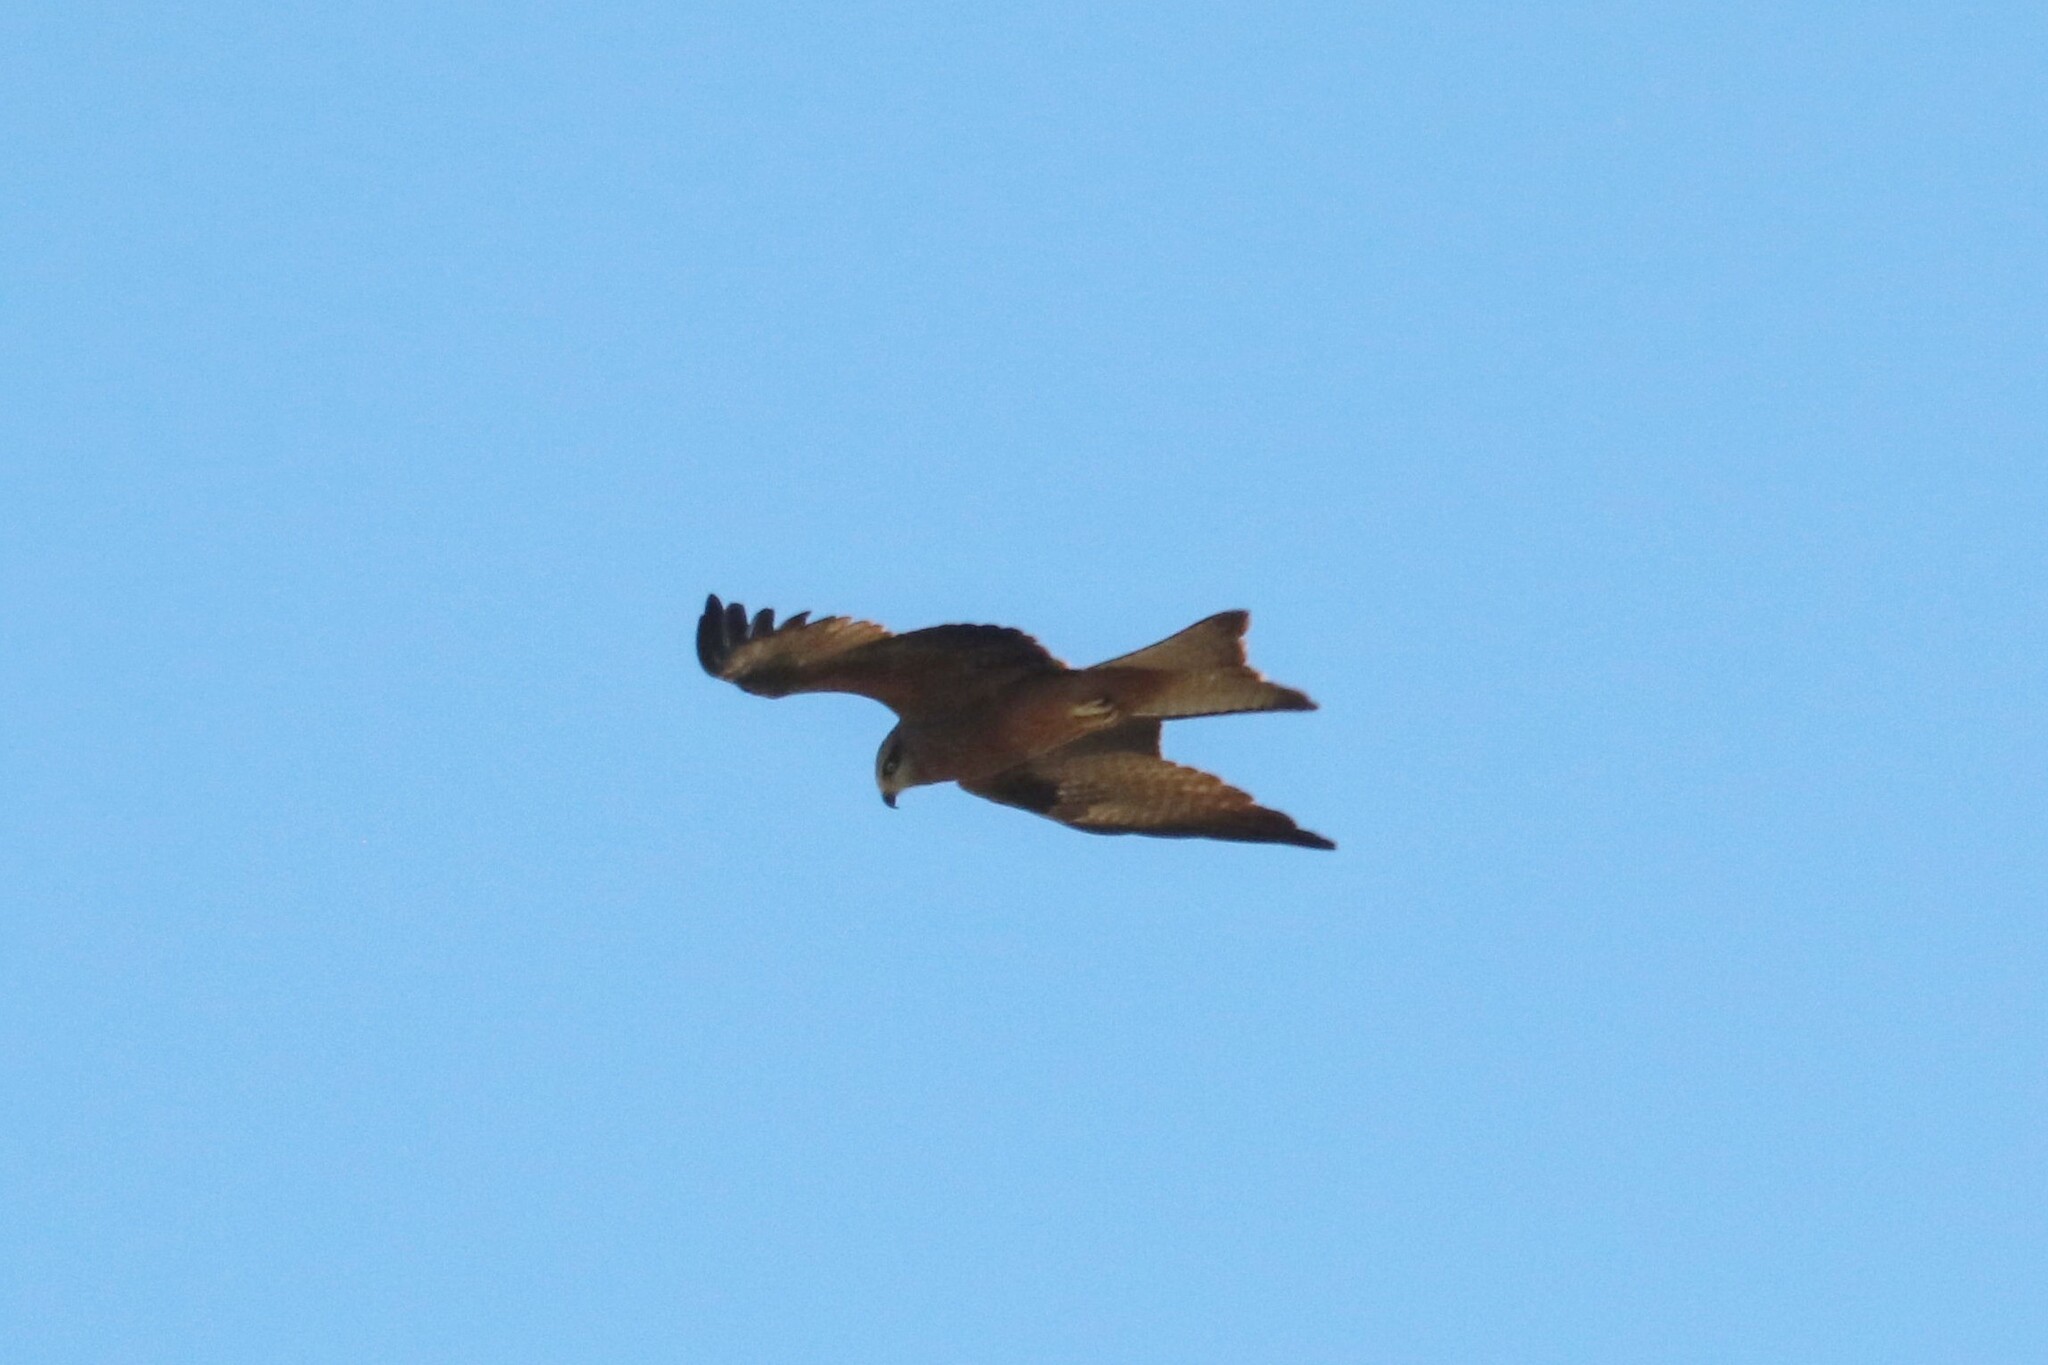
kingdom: Animalia
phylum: Chordata
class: Aves
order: Accipitriformes
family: Accipitridae
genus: Milvus
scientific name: Milvus migrans
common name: Black kite
